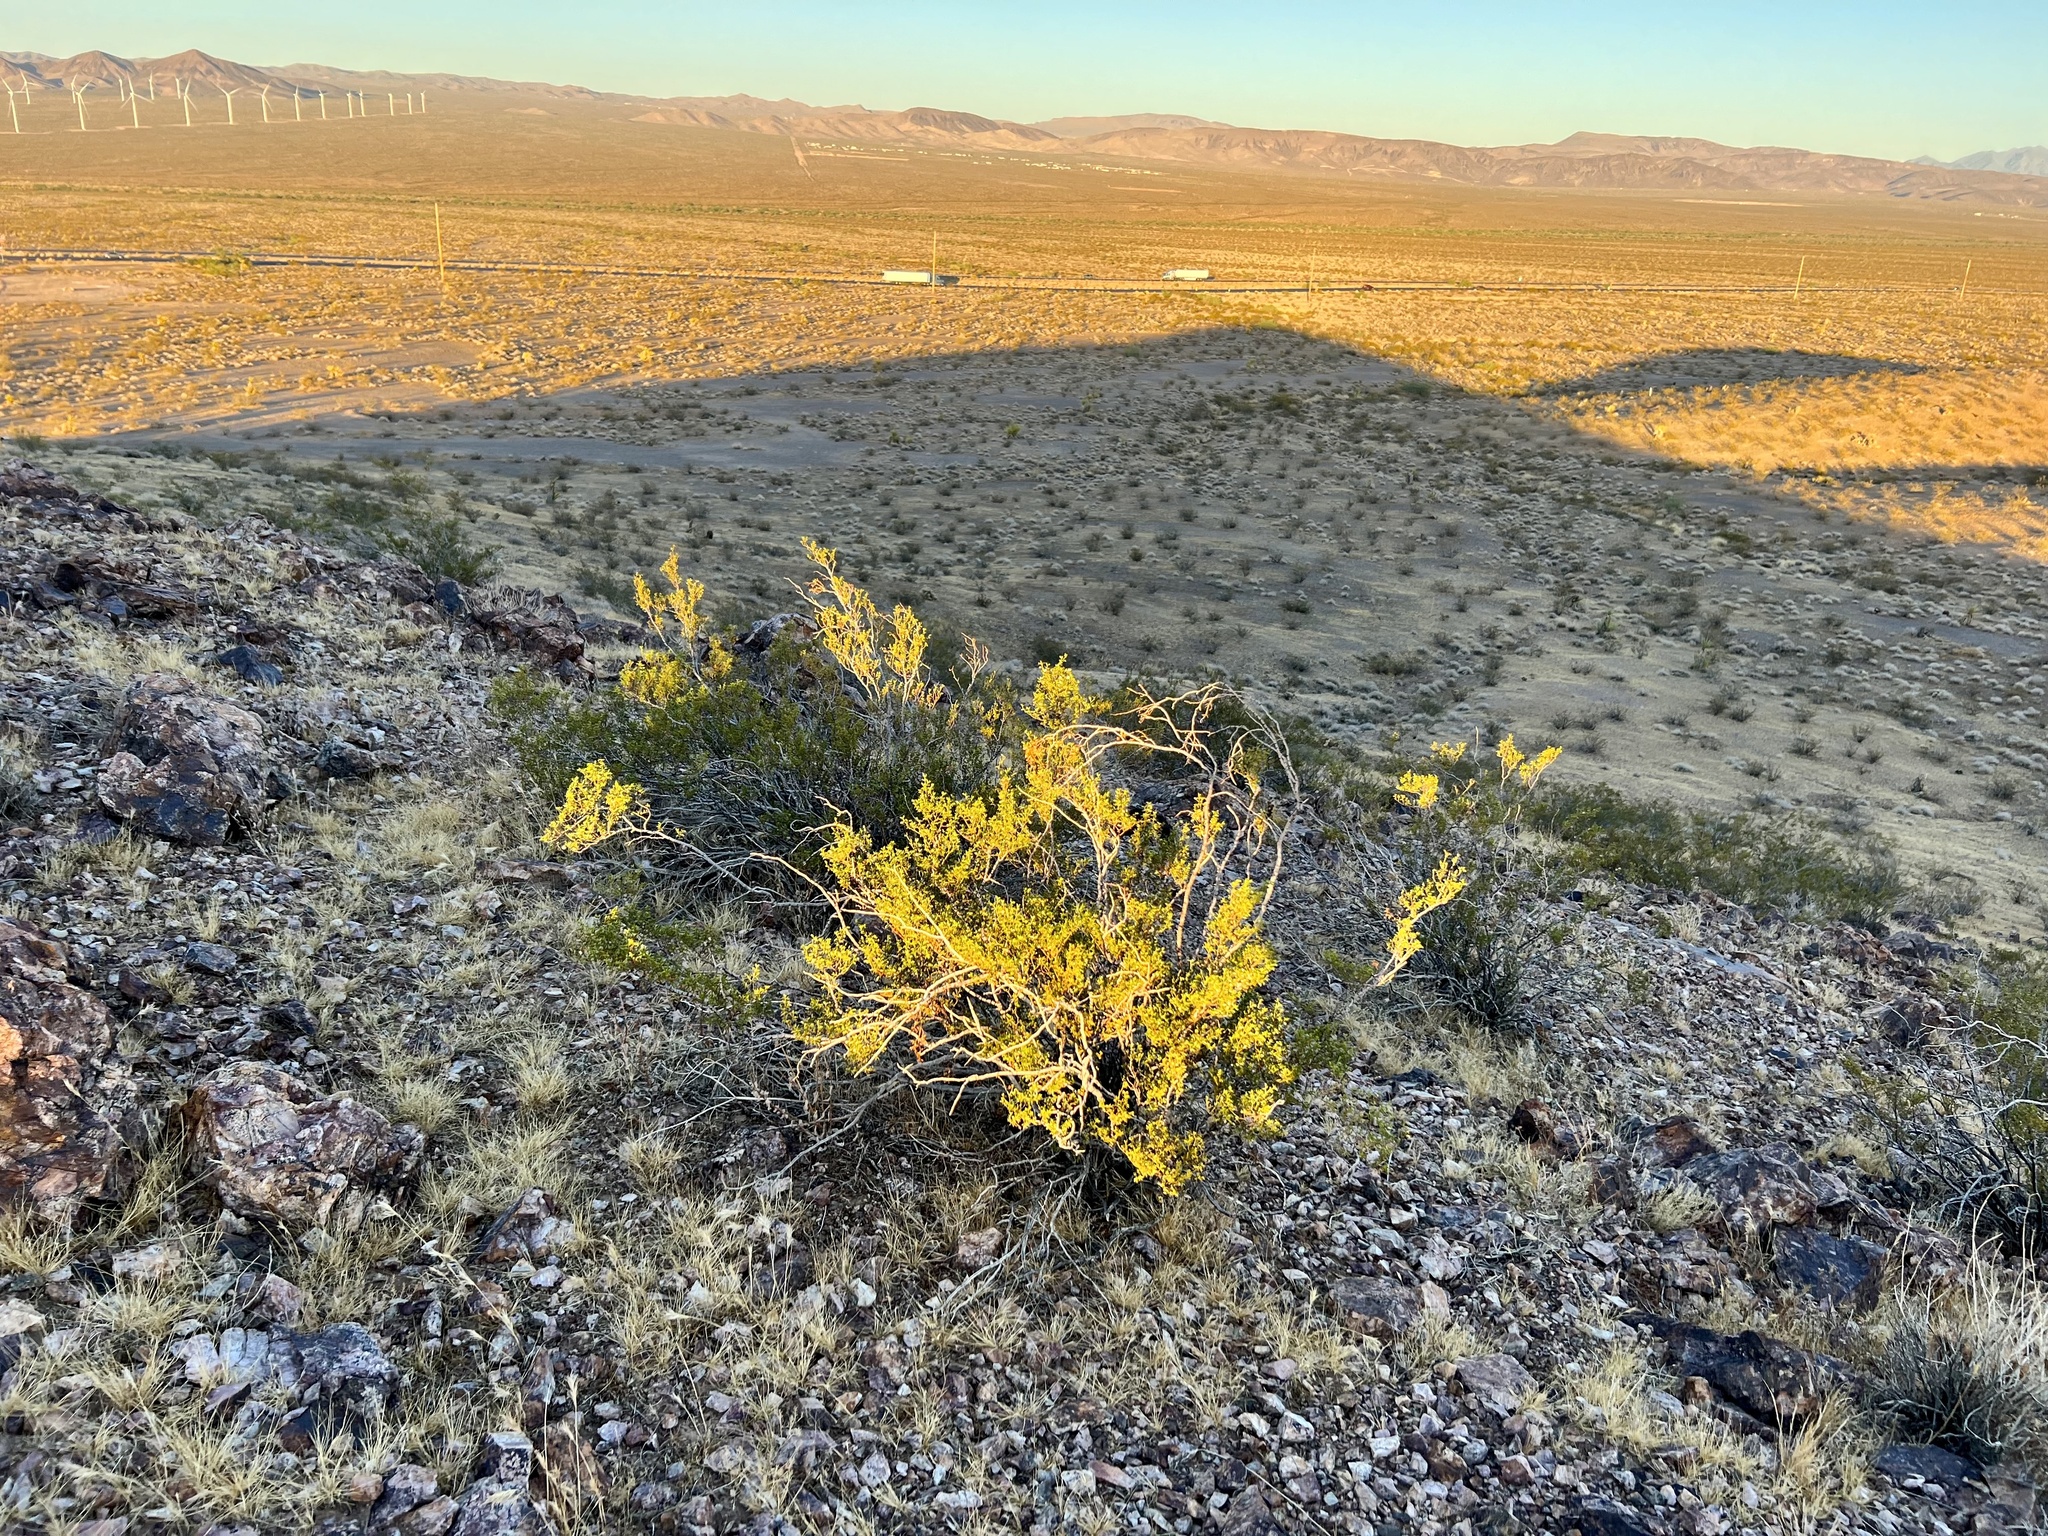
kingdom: Plantae
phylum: Tracheophyta
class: Magnoliopsida
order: Zygophyllales
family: Zygophyllaceae
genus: Larrea
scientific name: Larrea tridentata
